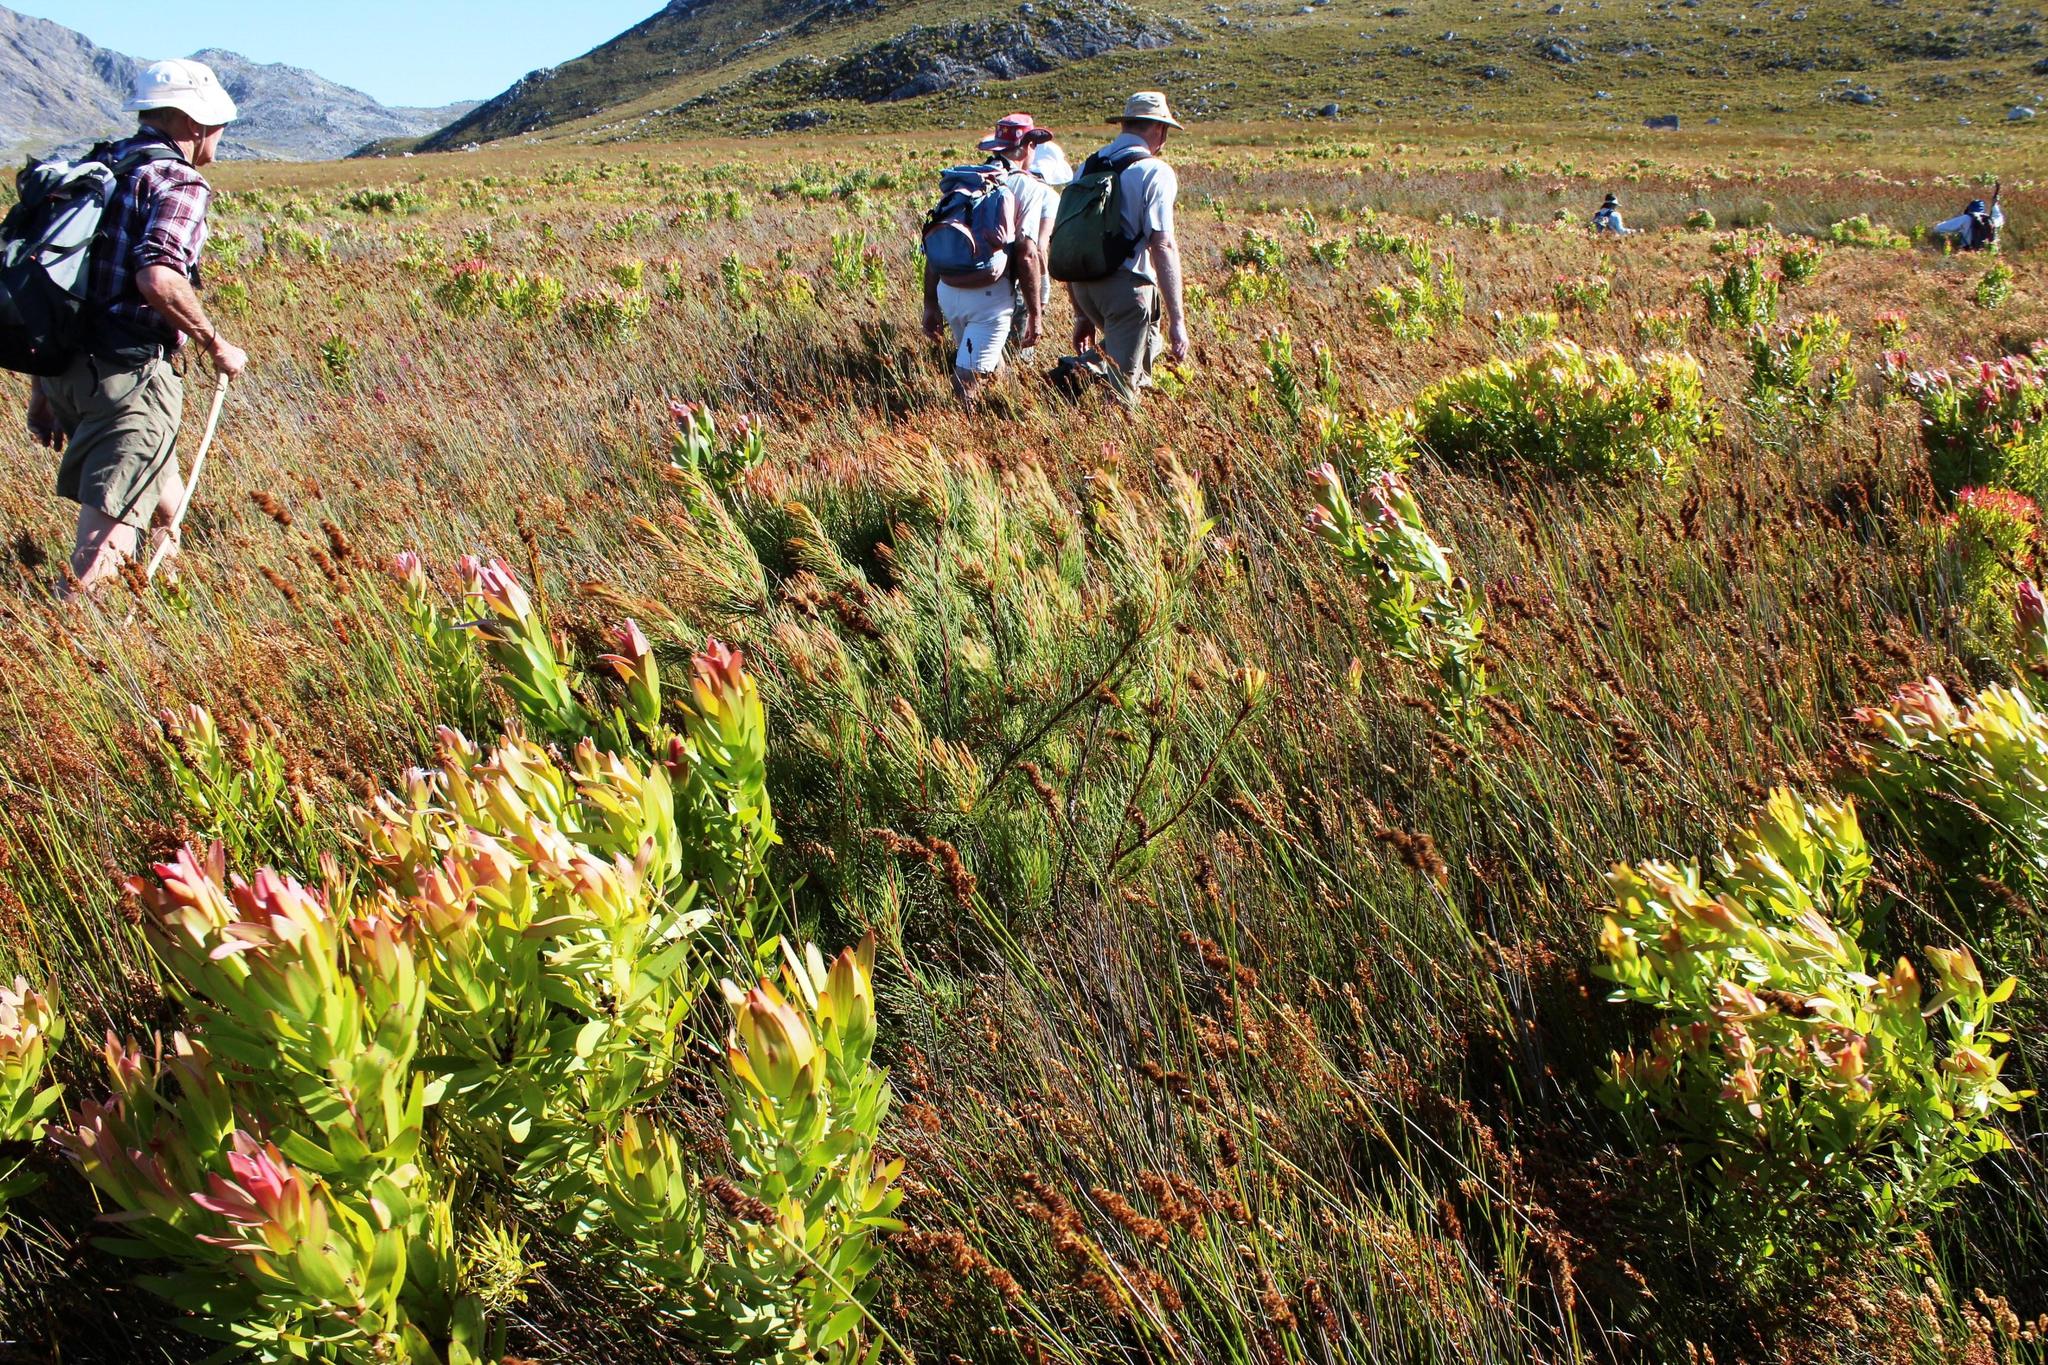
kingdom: Plantae
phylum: Tracheophyta
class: Magnoliopsida
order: Proteales
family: Proteaceae
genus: Aulax
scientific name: Aulax cancellata
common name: Channel-leaf featherbush
